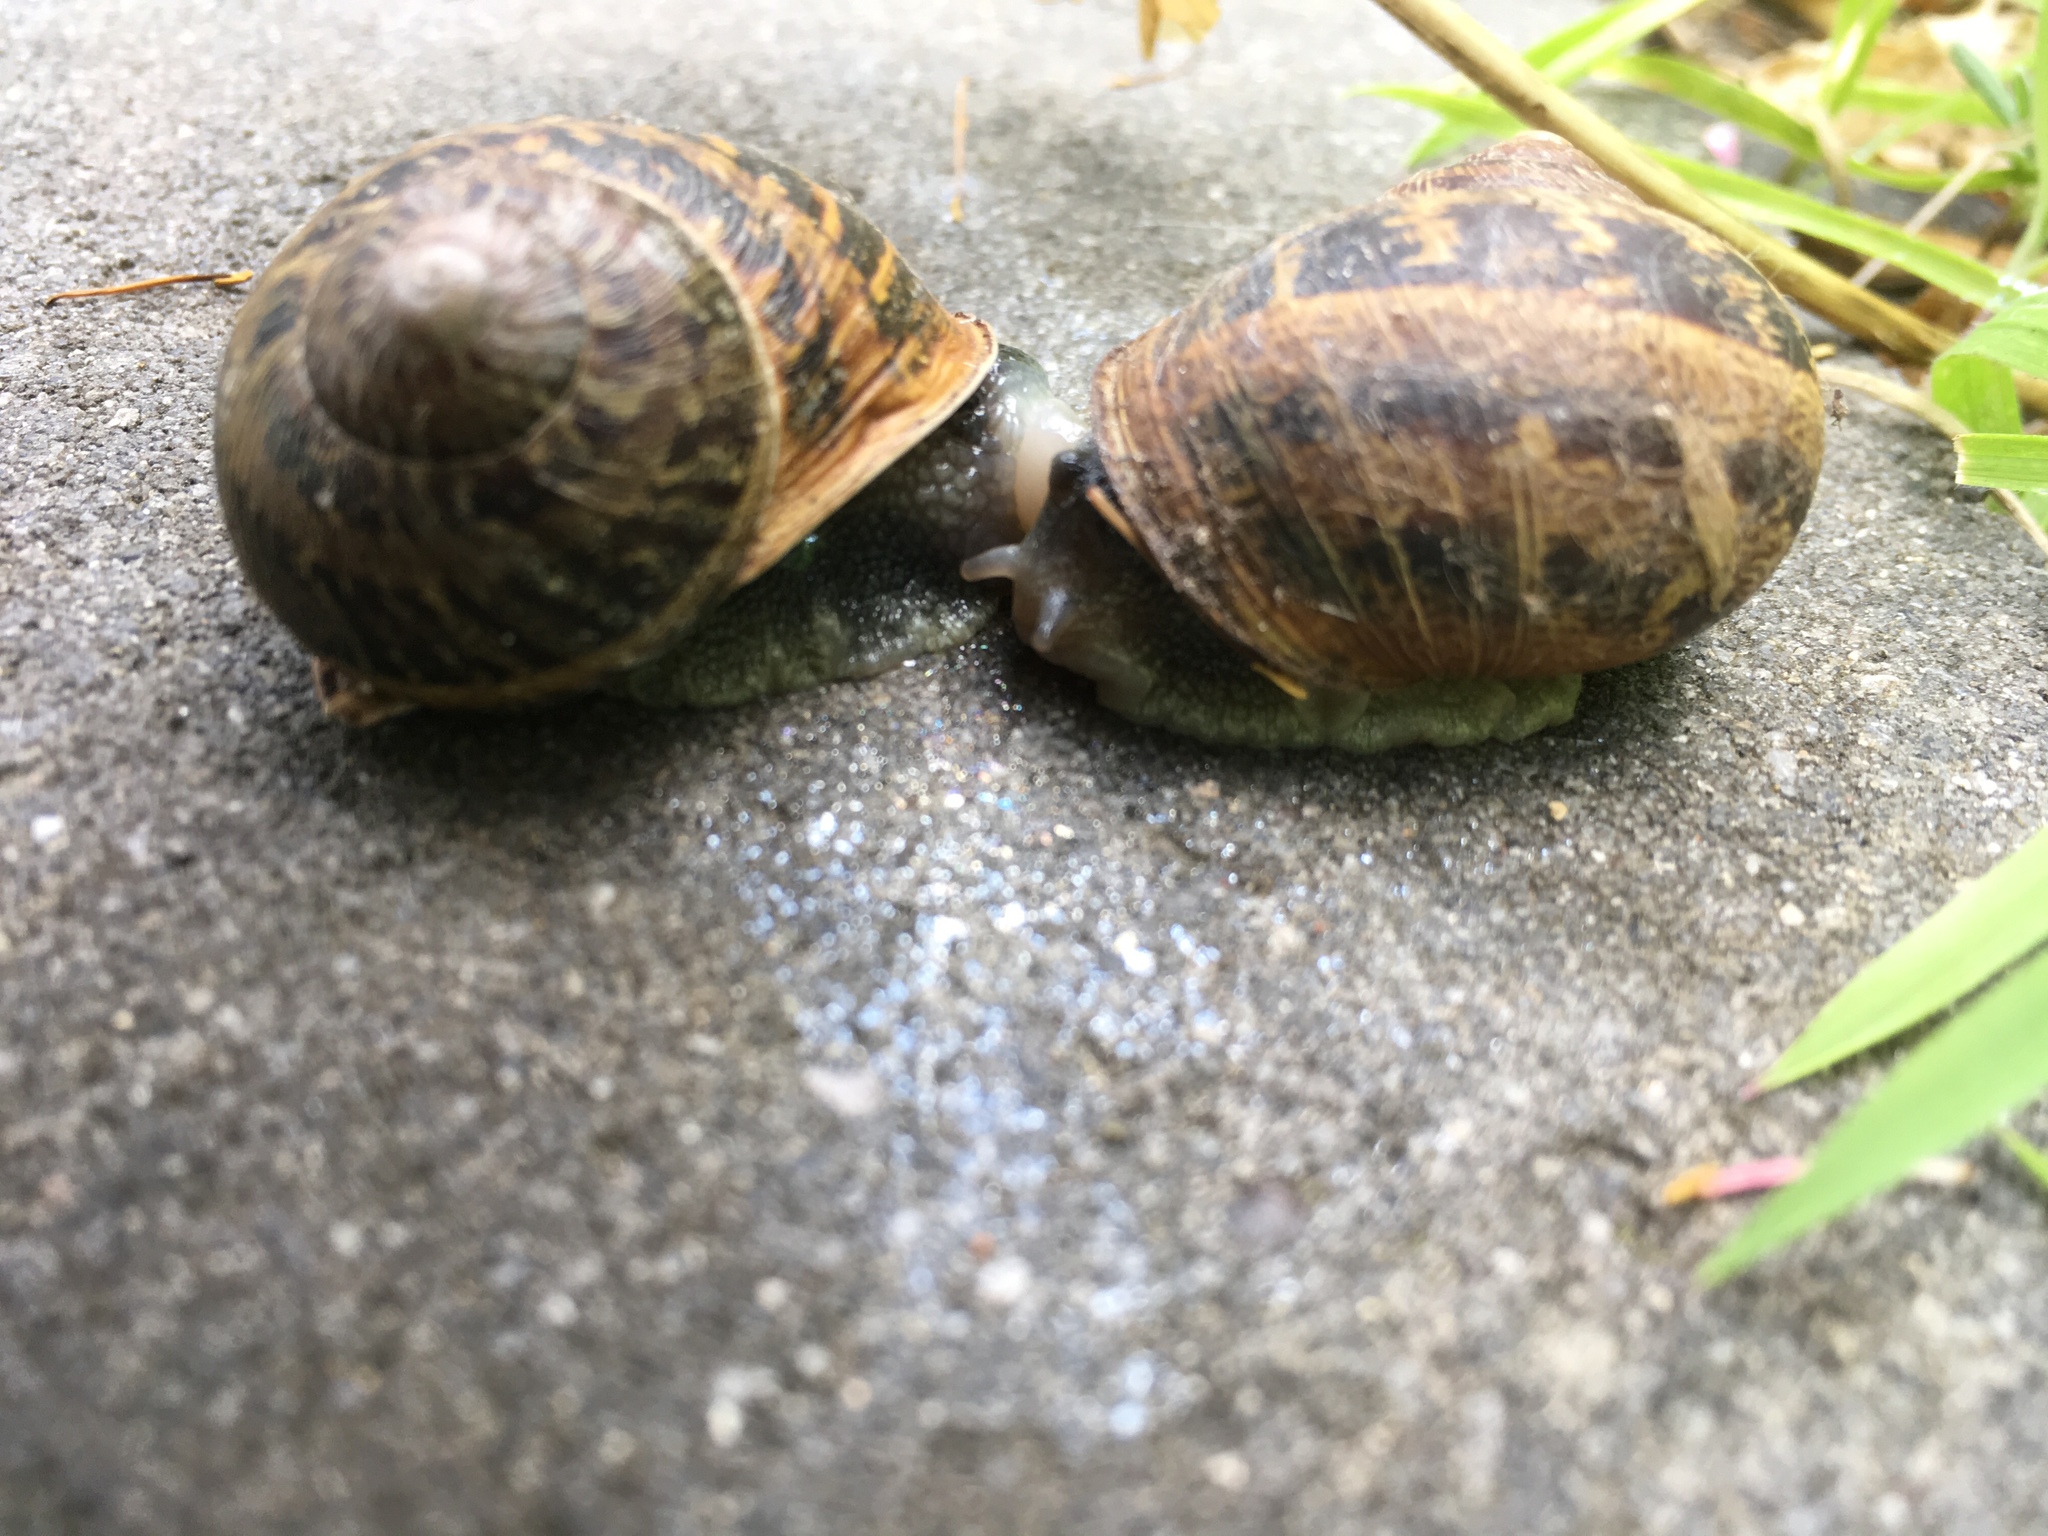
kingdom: Animalia
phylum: Mollusca
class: Gastropoda
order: Stylommatophora
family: Helicidae
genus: Cornu
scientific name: Cornu aspersum
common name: Brown garden snail
